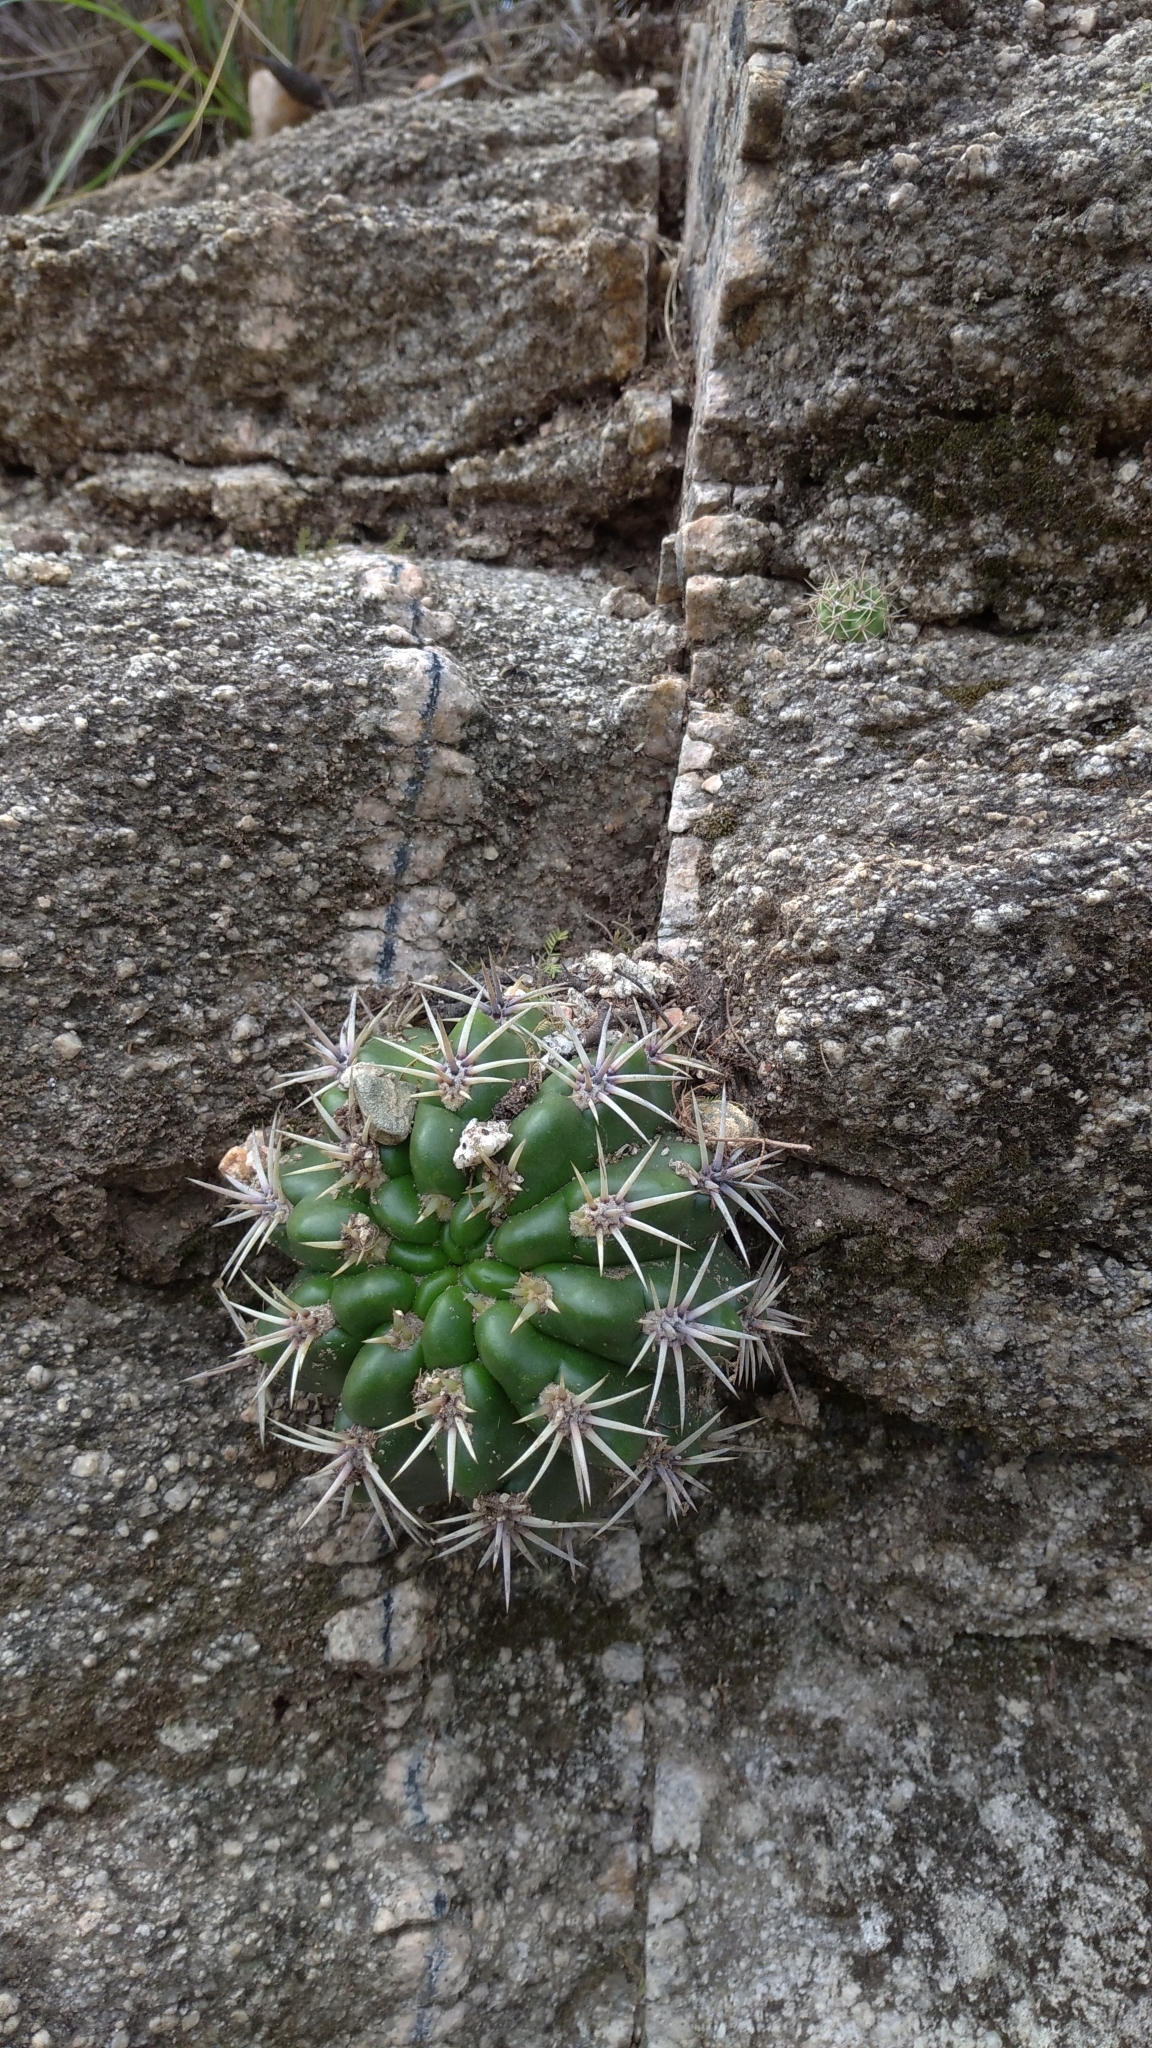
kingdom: Plantae
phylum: Tracheophyta
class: Magnoliopsida
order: Caryophyllales
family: Cactaceae
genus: Gymnocalycium
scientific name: Gymnocalycium monvillei
